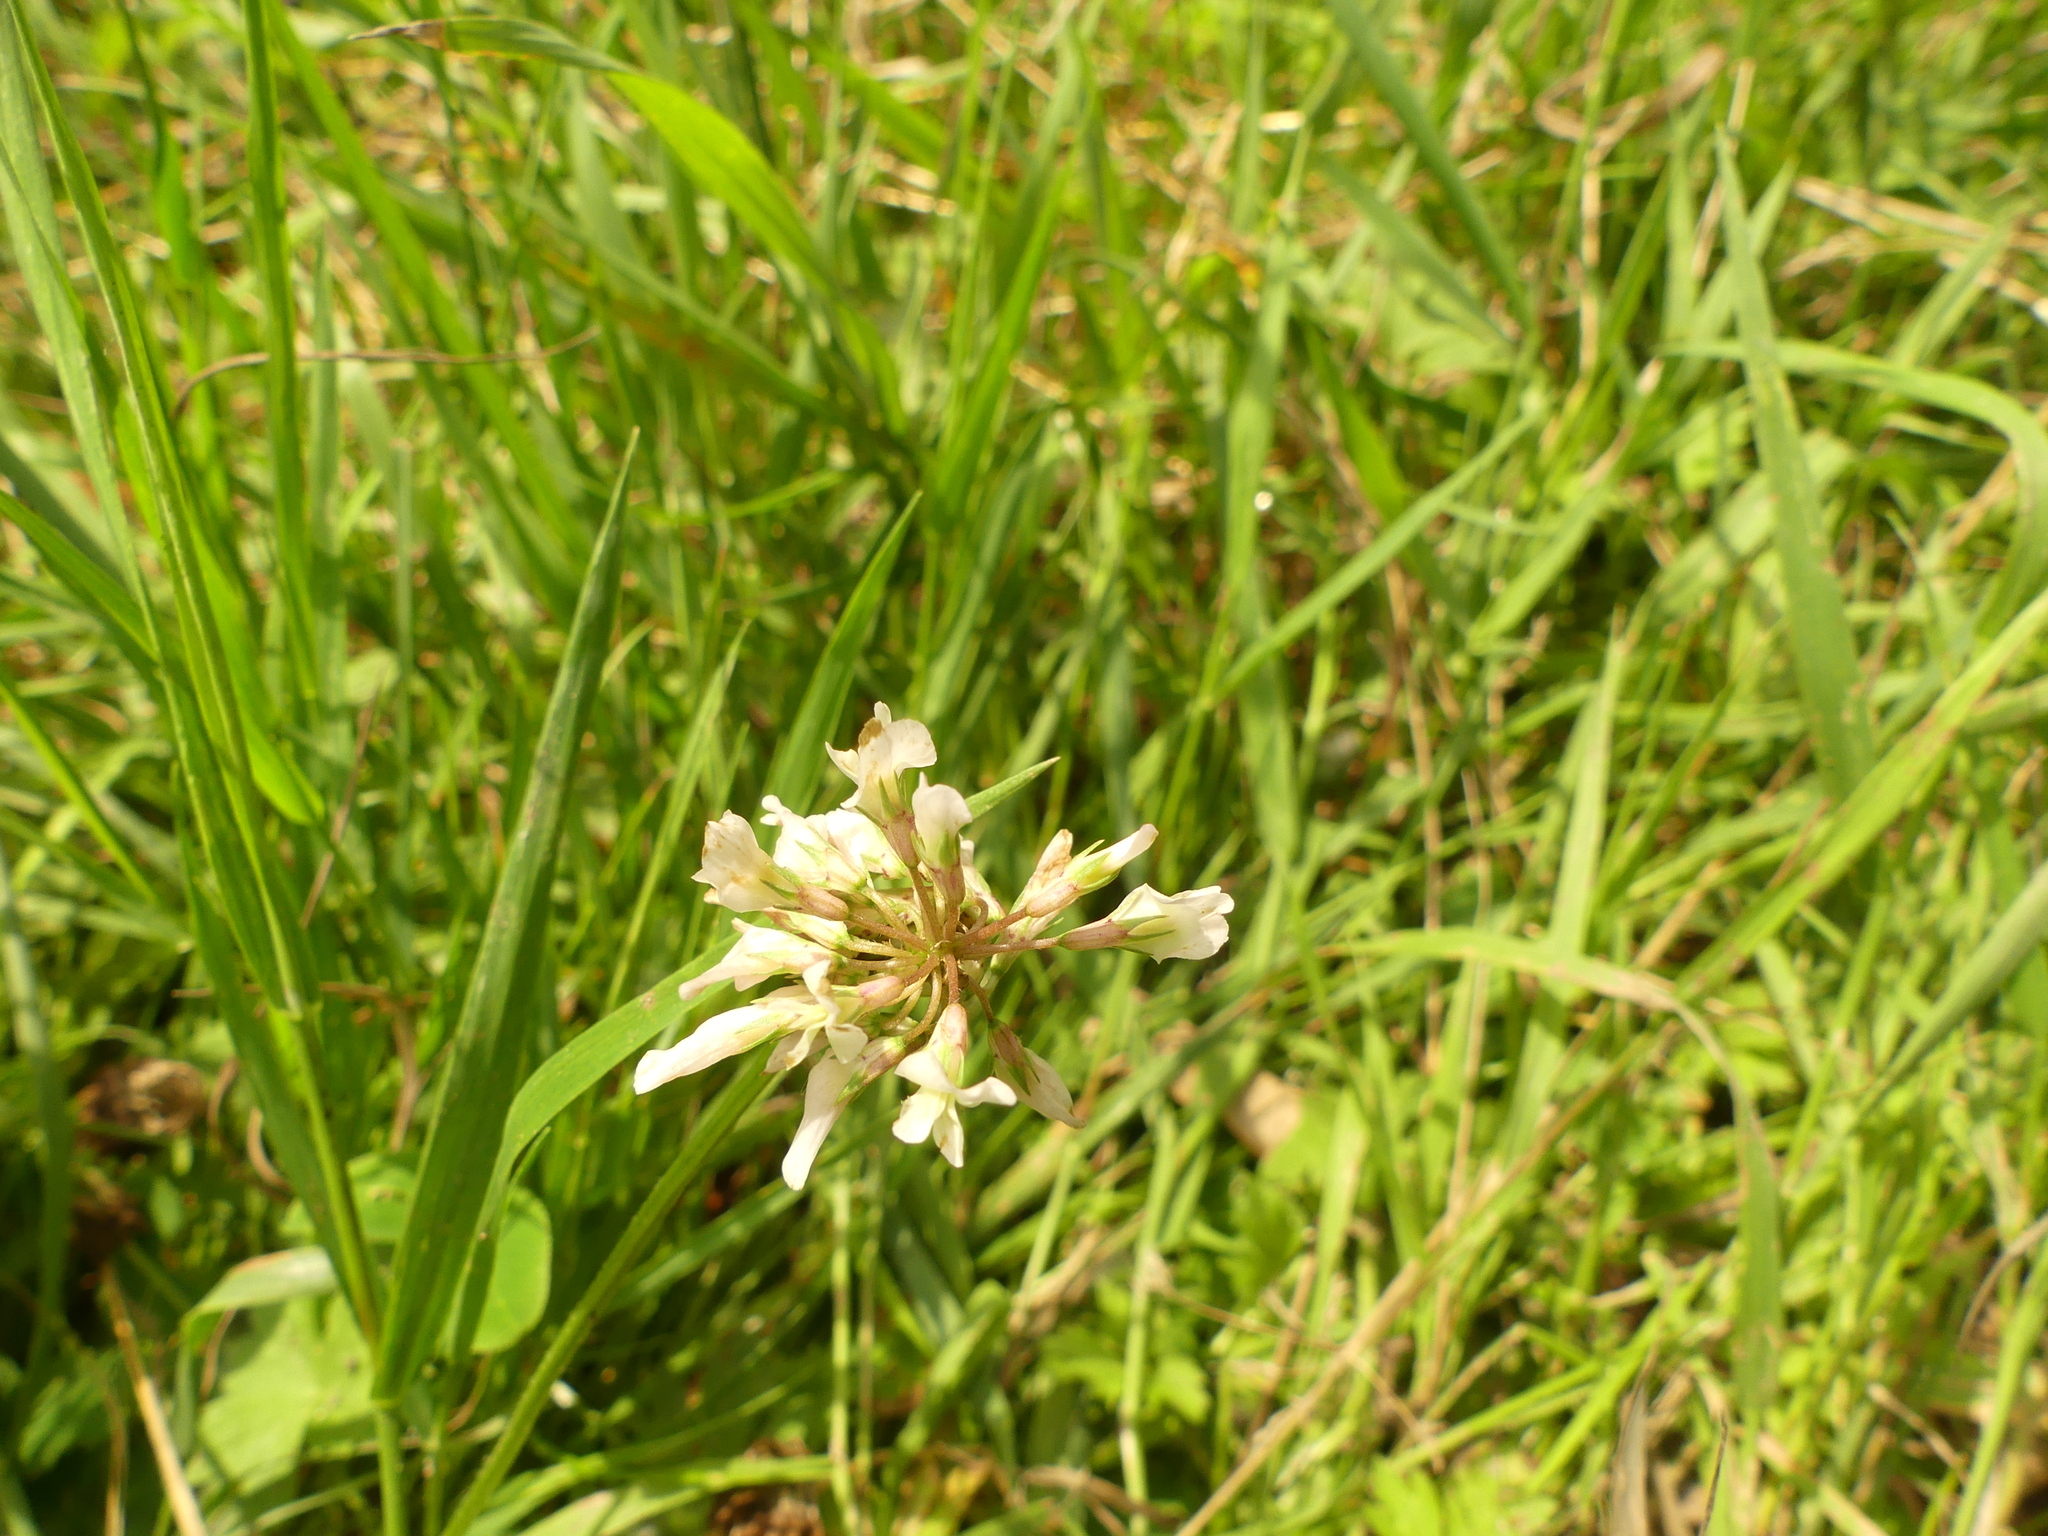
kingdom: Plantae
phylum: Tracheophyta
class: Magnoliopsida
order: Fabales
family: Fabaceae
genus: Trifolium
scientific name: Trifolium repens
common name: White clover
